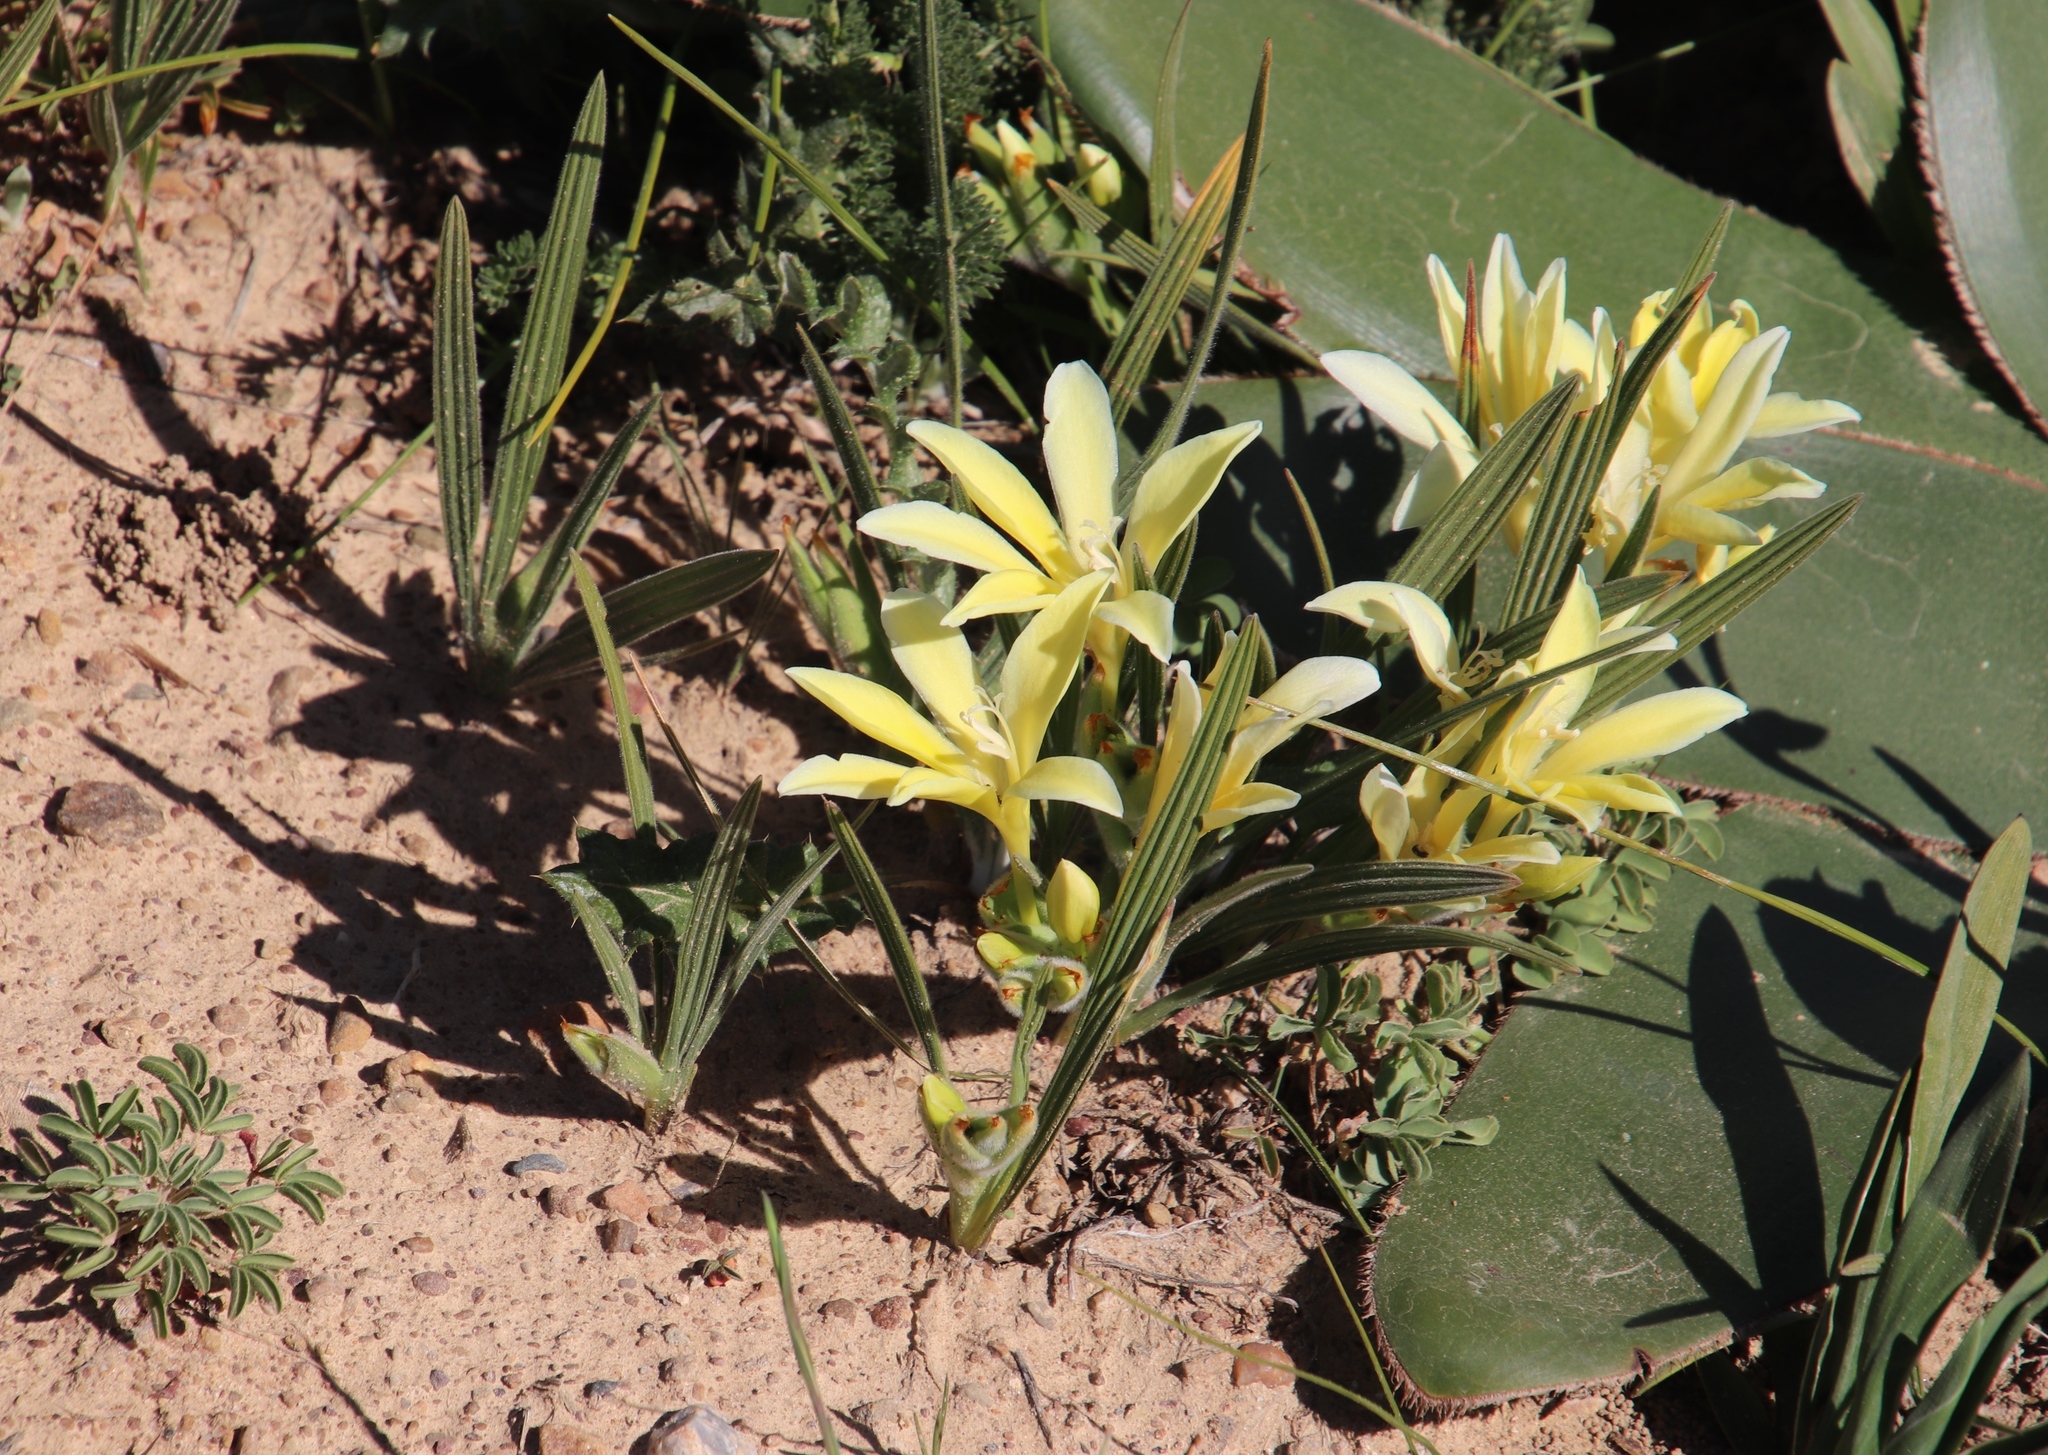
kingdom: Plantae
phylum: Tracheophyta
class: Liliopsida
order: Asparagales
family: Iridaceae
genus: Babiana
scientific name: Babiana vanzijliae
